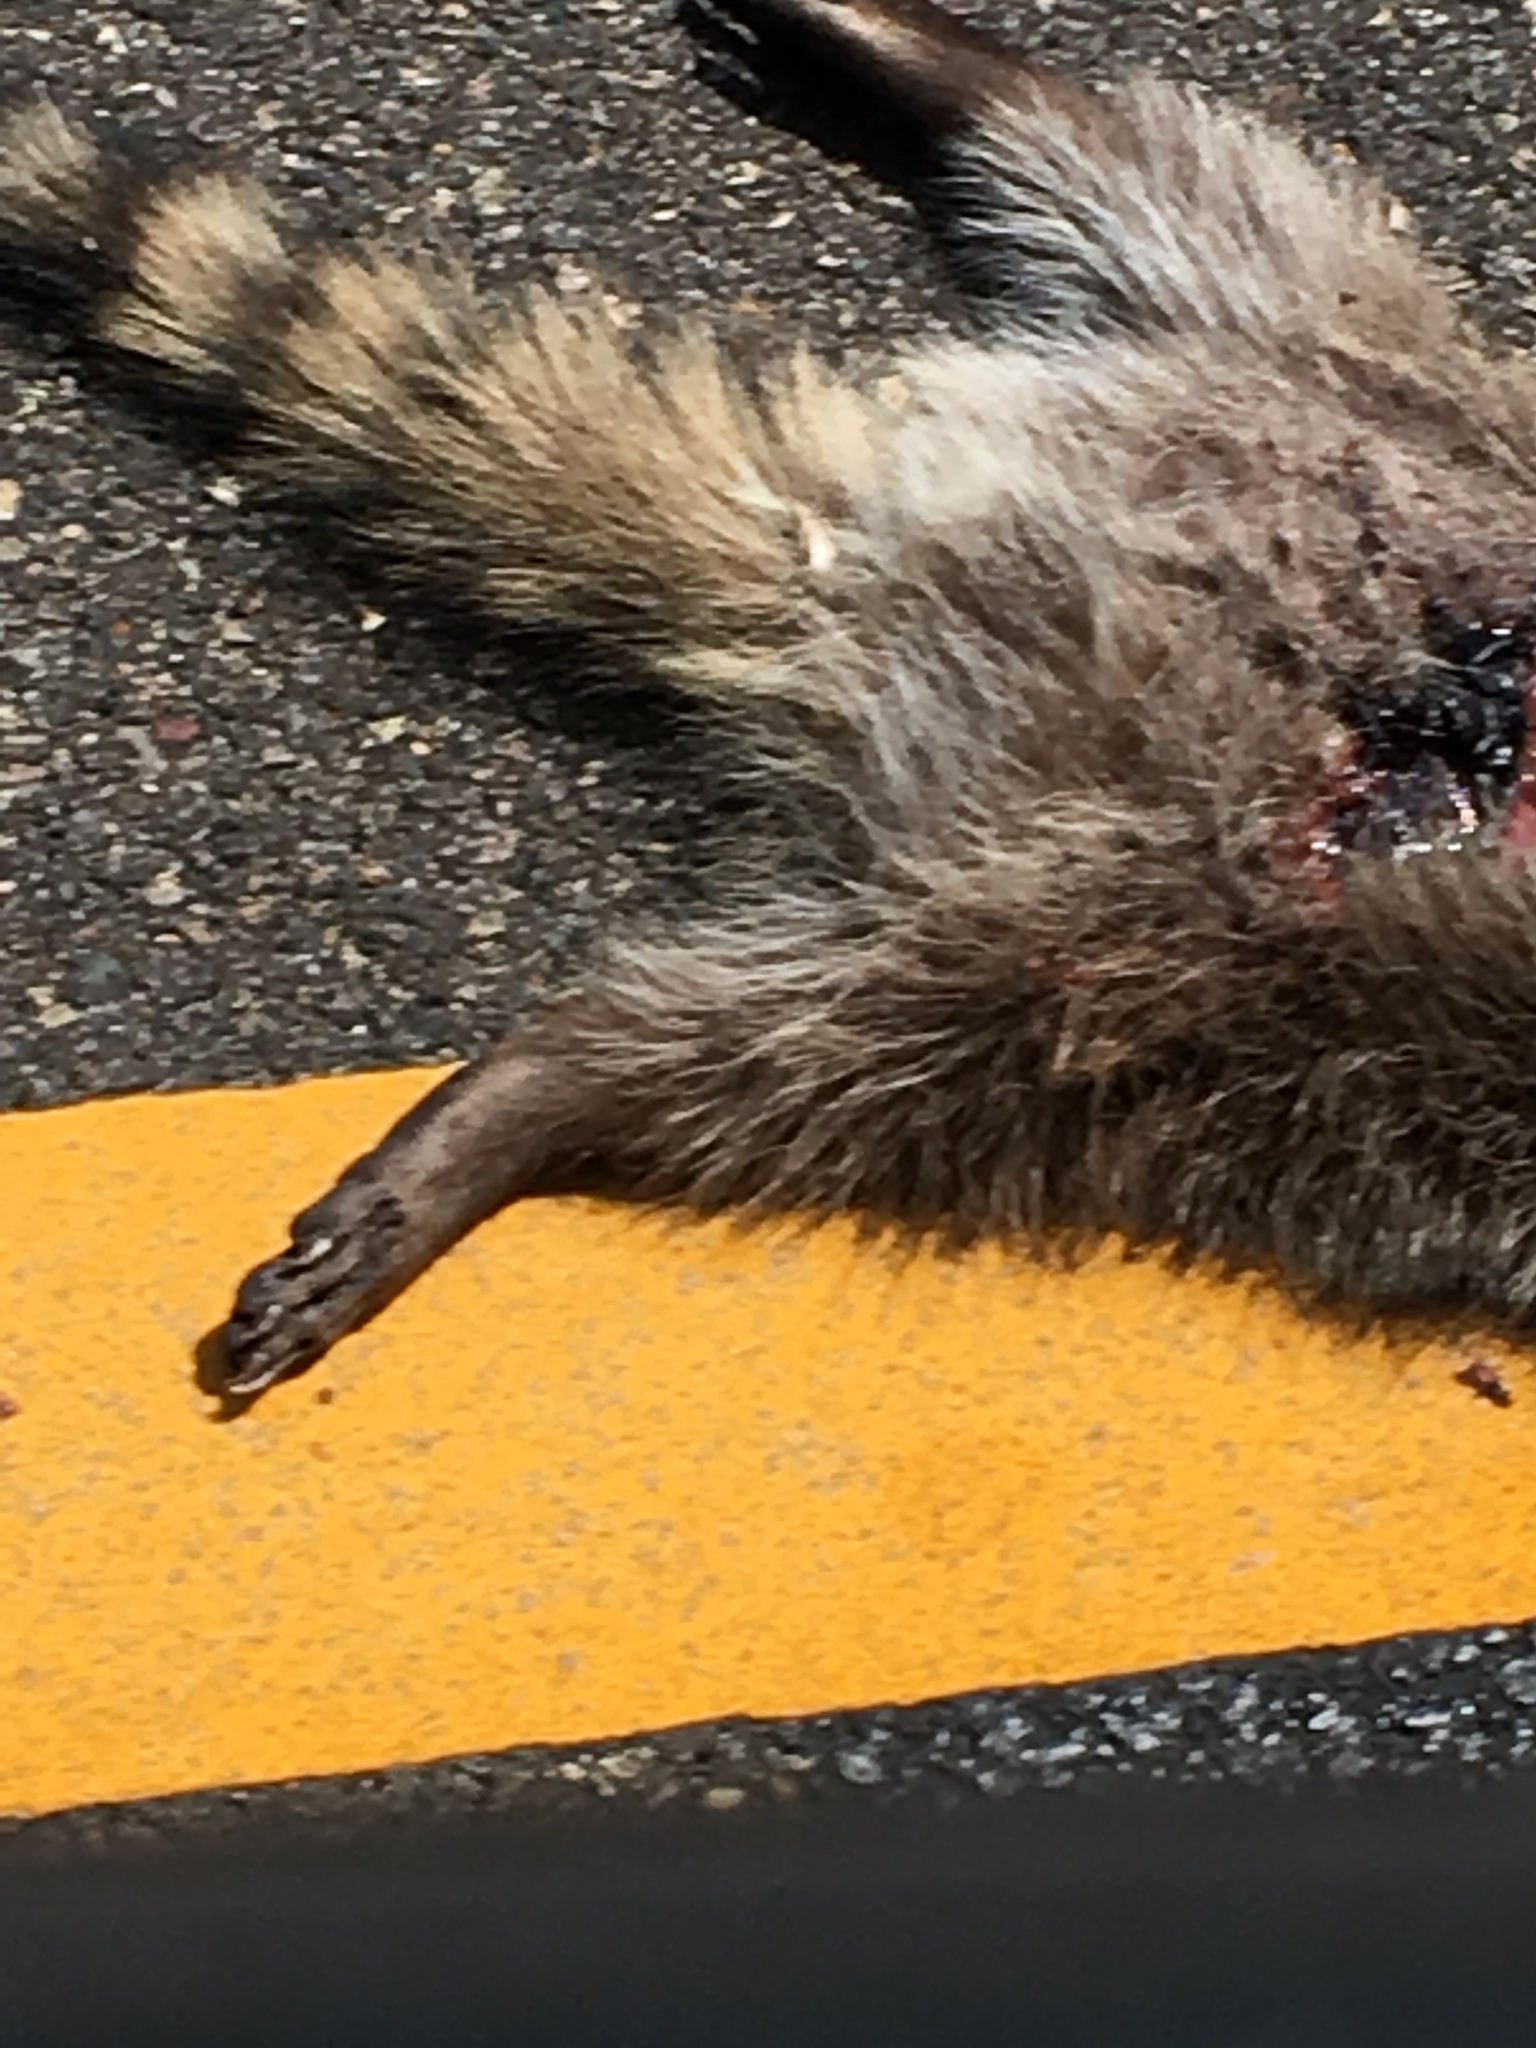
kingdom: Animalia
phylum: Chordata
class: Mammalia
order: Carnivora
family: Procyonidae
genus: Procyon
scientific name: Procyon lotor
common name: Raccoon
